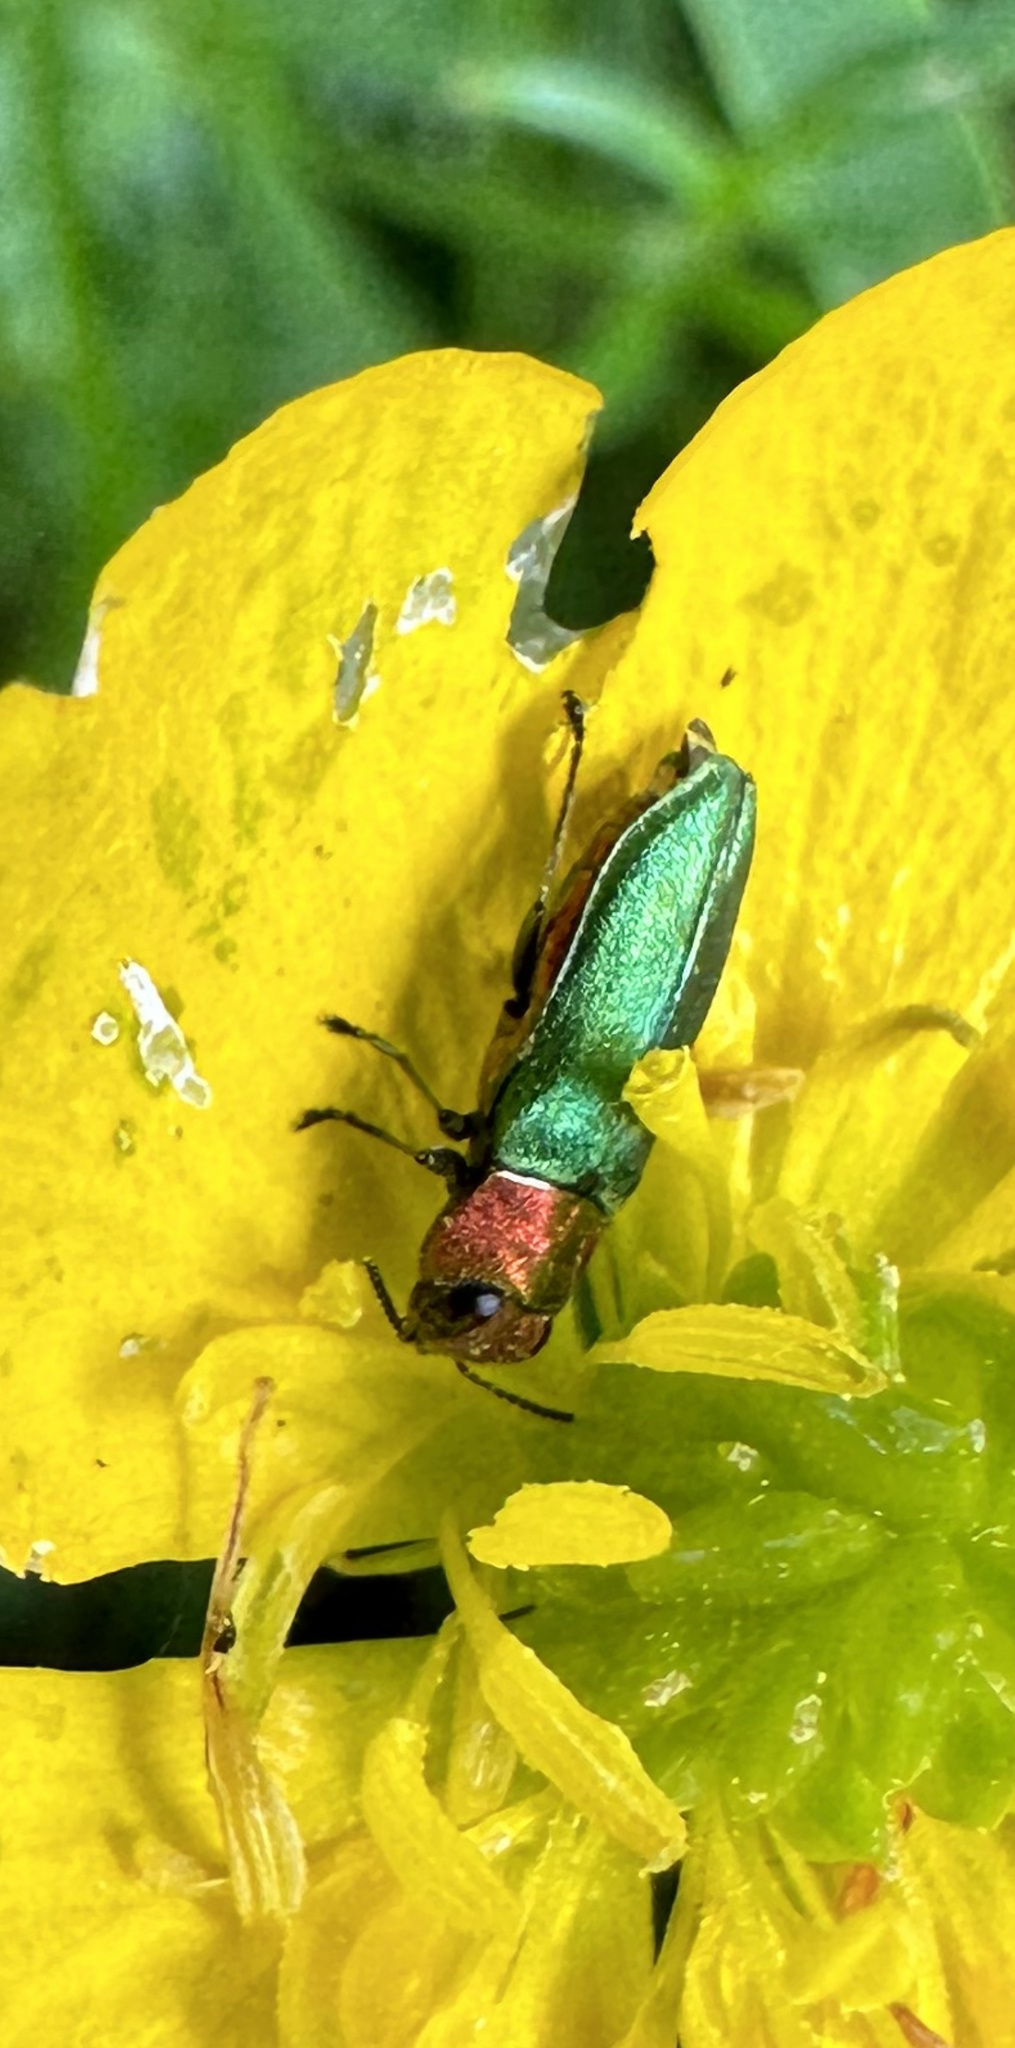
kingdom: Animalia
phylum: Arthropoda
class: Insecta
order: Coleoptera
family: Buprestidae
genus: Anthaxia
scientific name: Anthaxia nitidula
